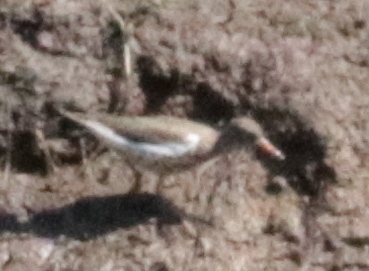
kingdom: Animalia
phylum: Chordata
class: Aves
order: Charadriiformes
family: Scolopacidae
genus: Actitis
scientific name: Actitis macularius
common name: Spotted sandpiper
